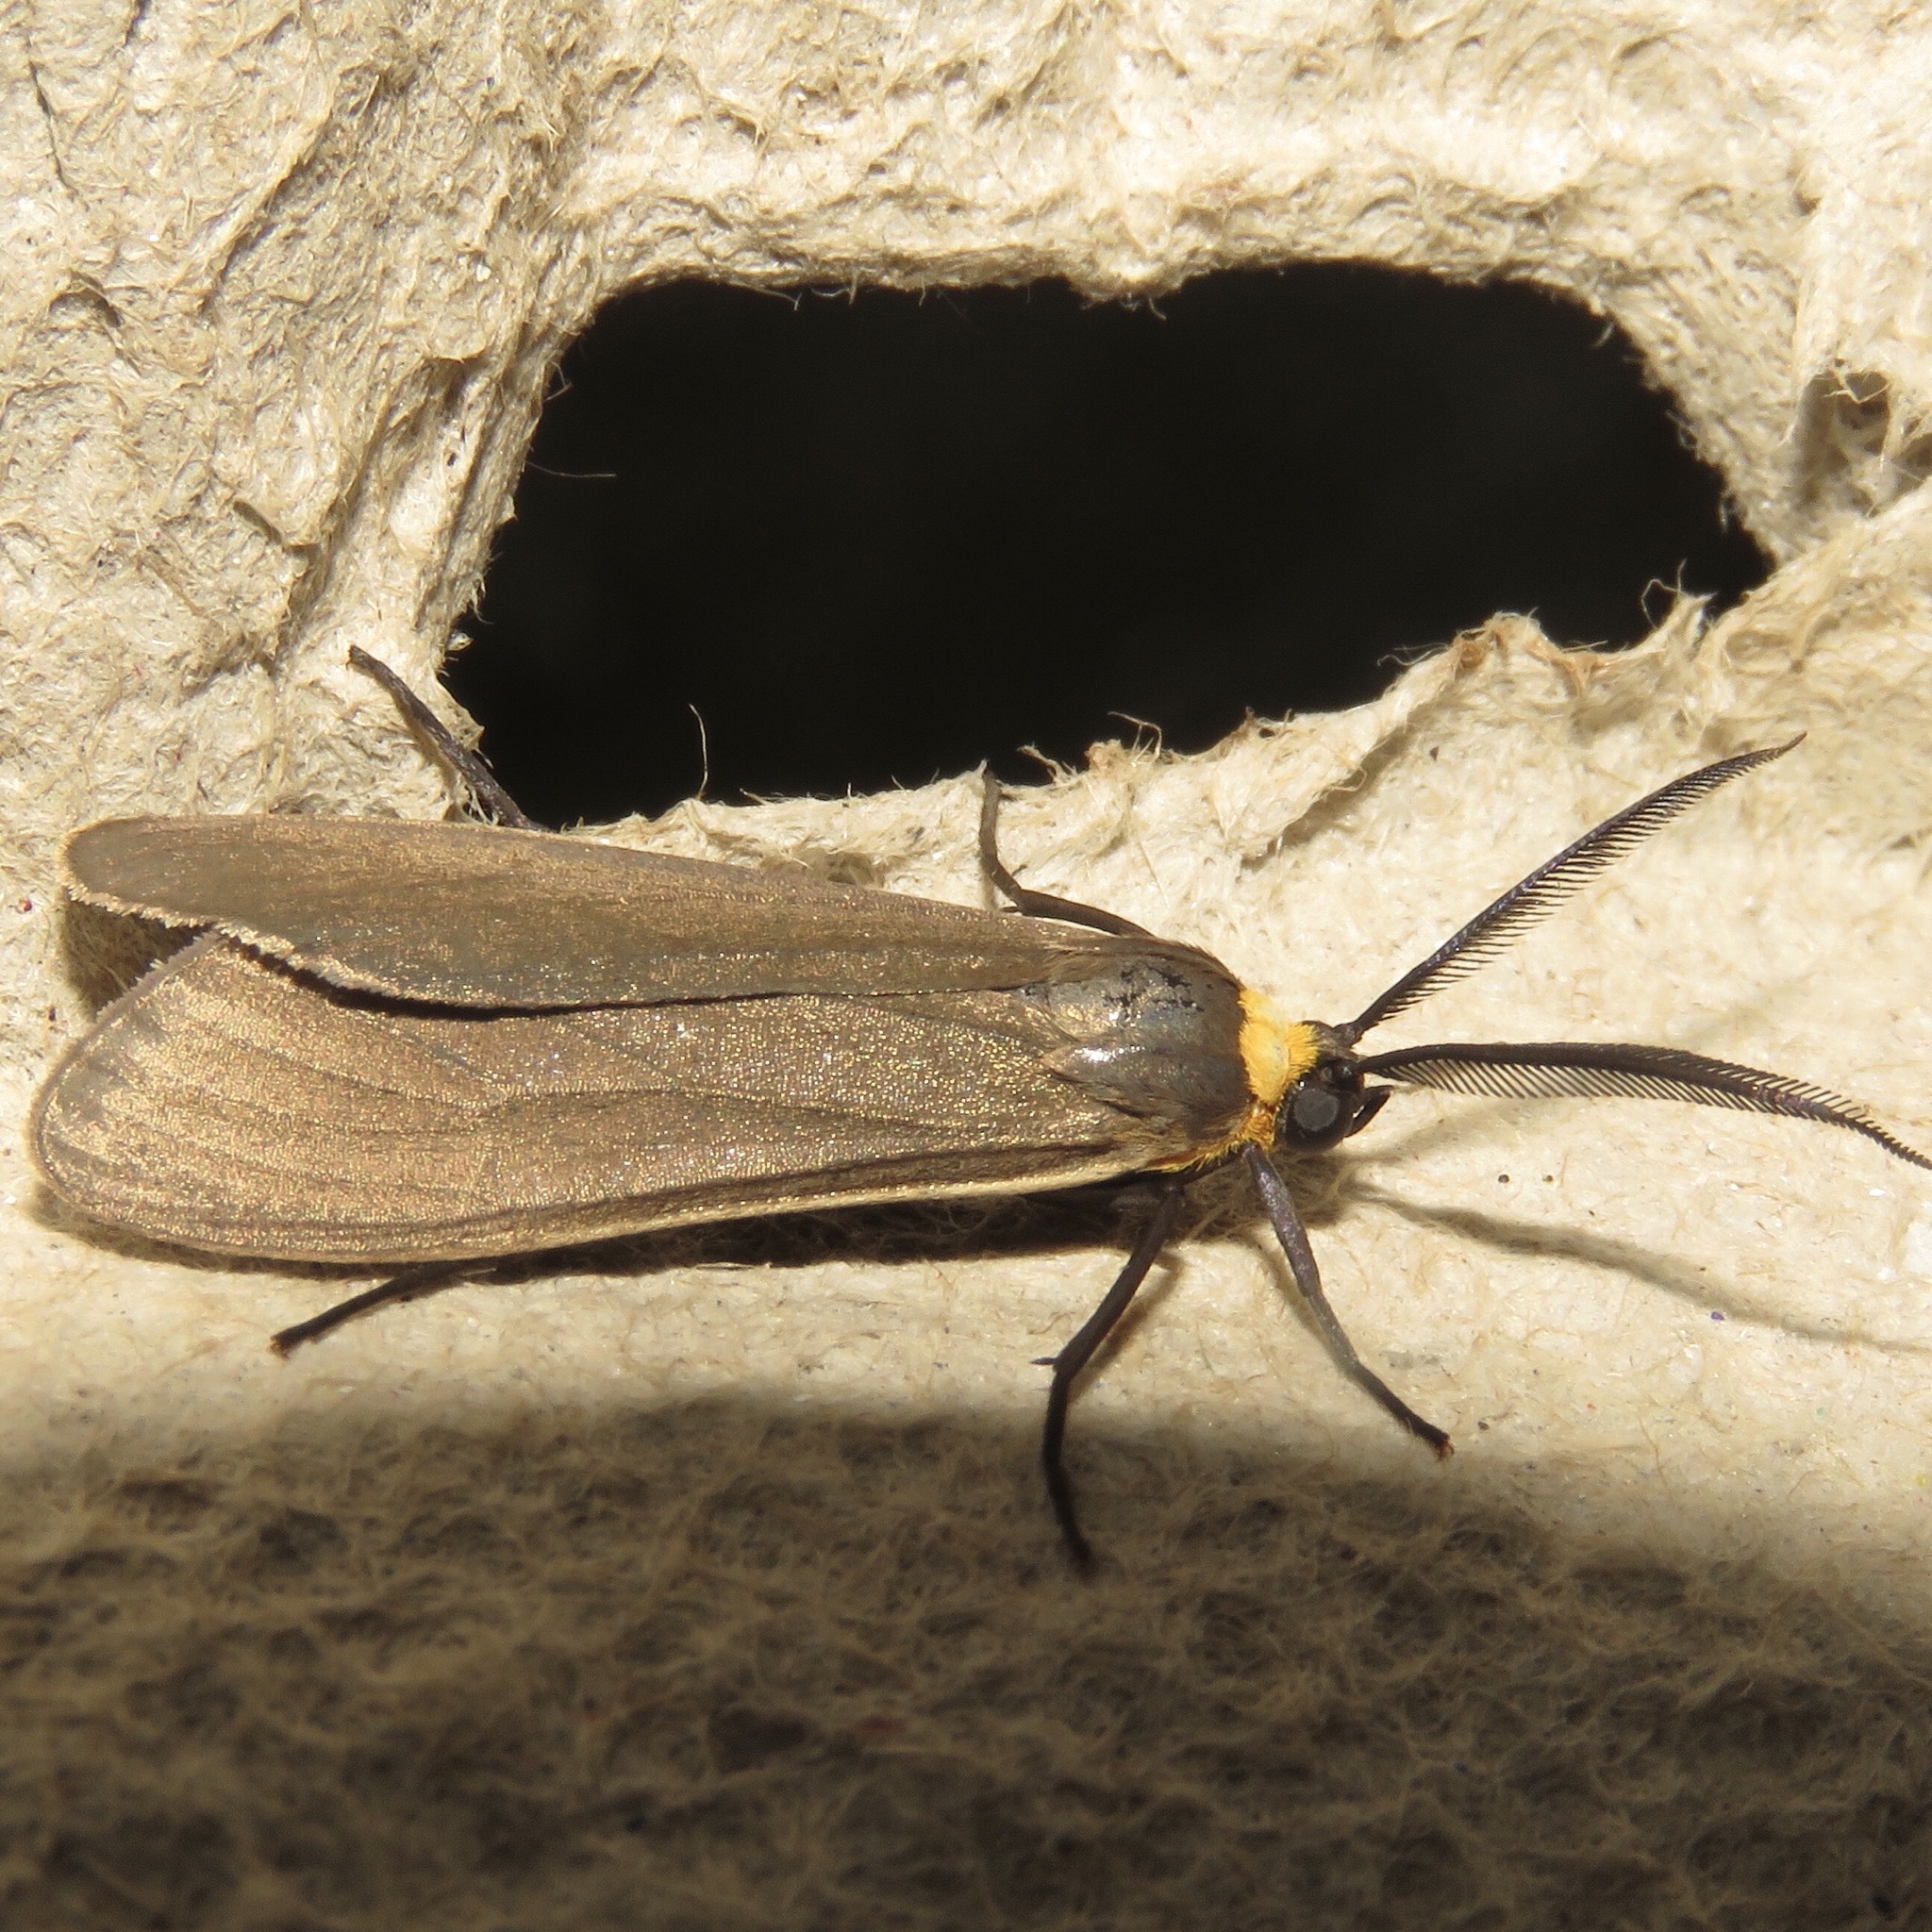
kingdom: Animalia
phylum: Arthropoda
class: Insecta
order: Lepidoptera
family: Erebidae
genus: Cisseps
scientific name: Cisseps fulvicollis
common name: Yellow-collared scape moth
